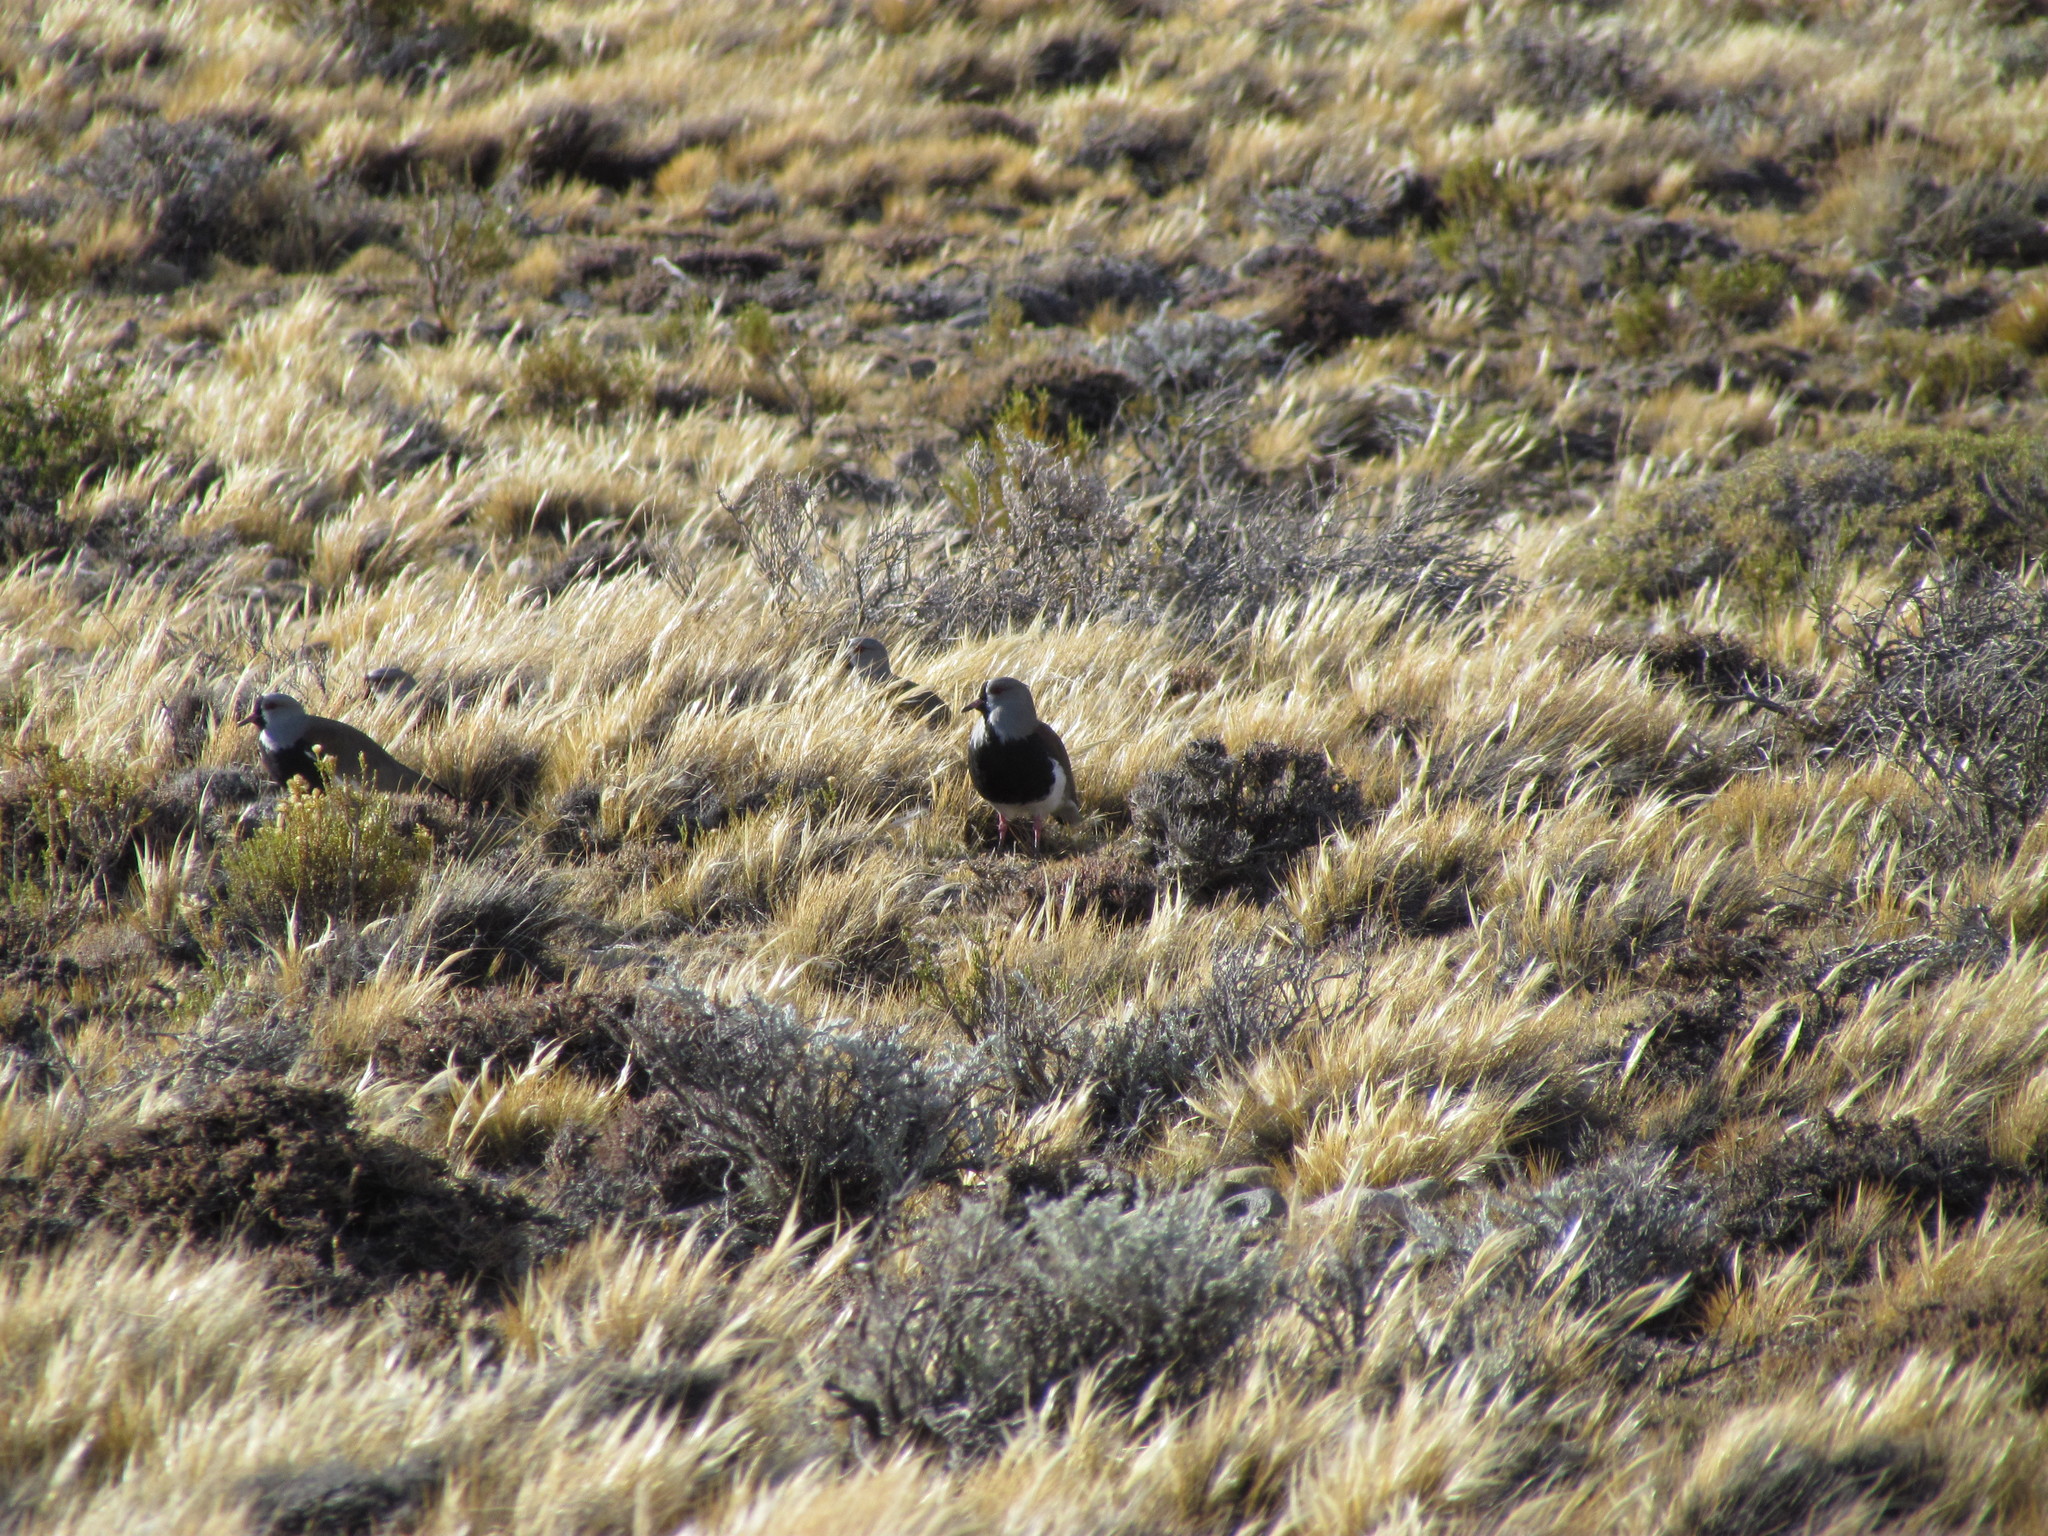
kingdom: Animalia
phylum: Chordata
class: Aves
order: Charadriiformes
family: Charadriidae
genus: Vanellus
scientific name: Vanellus chilensis
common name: Southern lapwing
